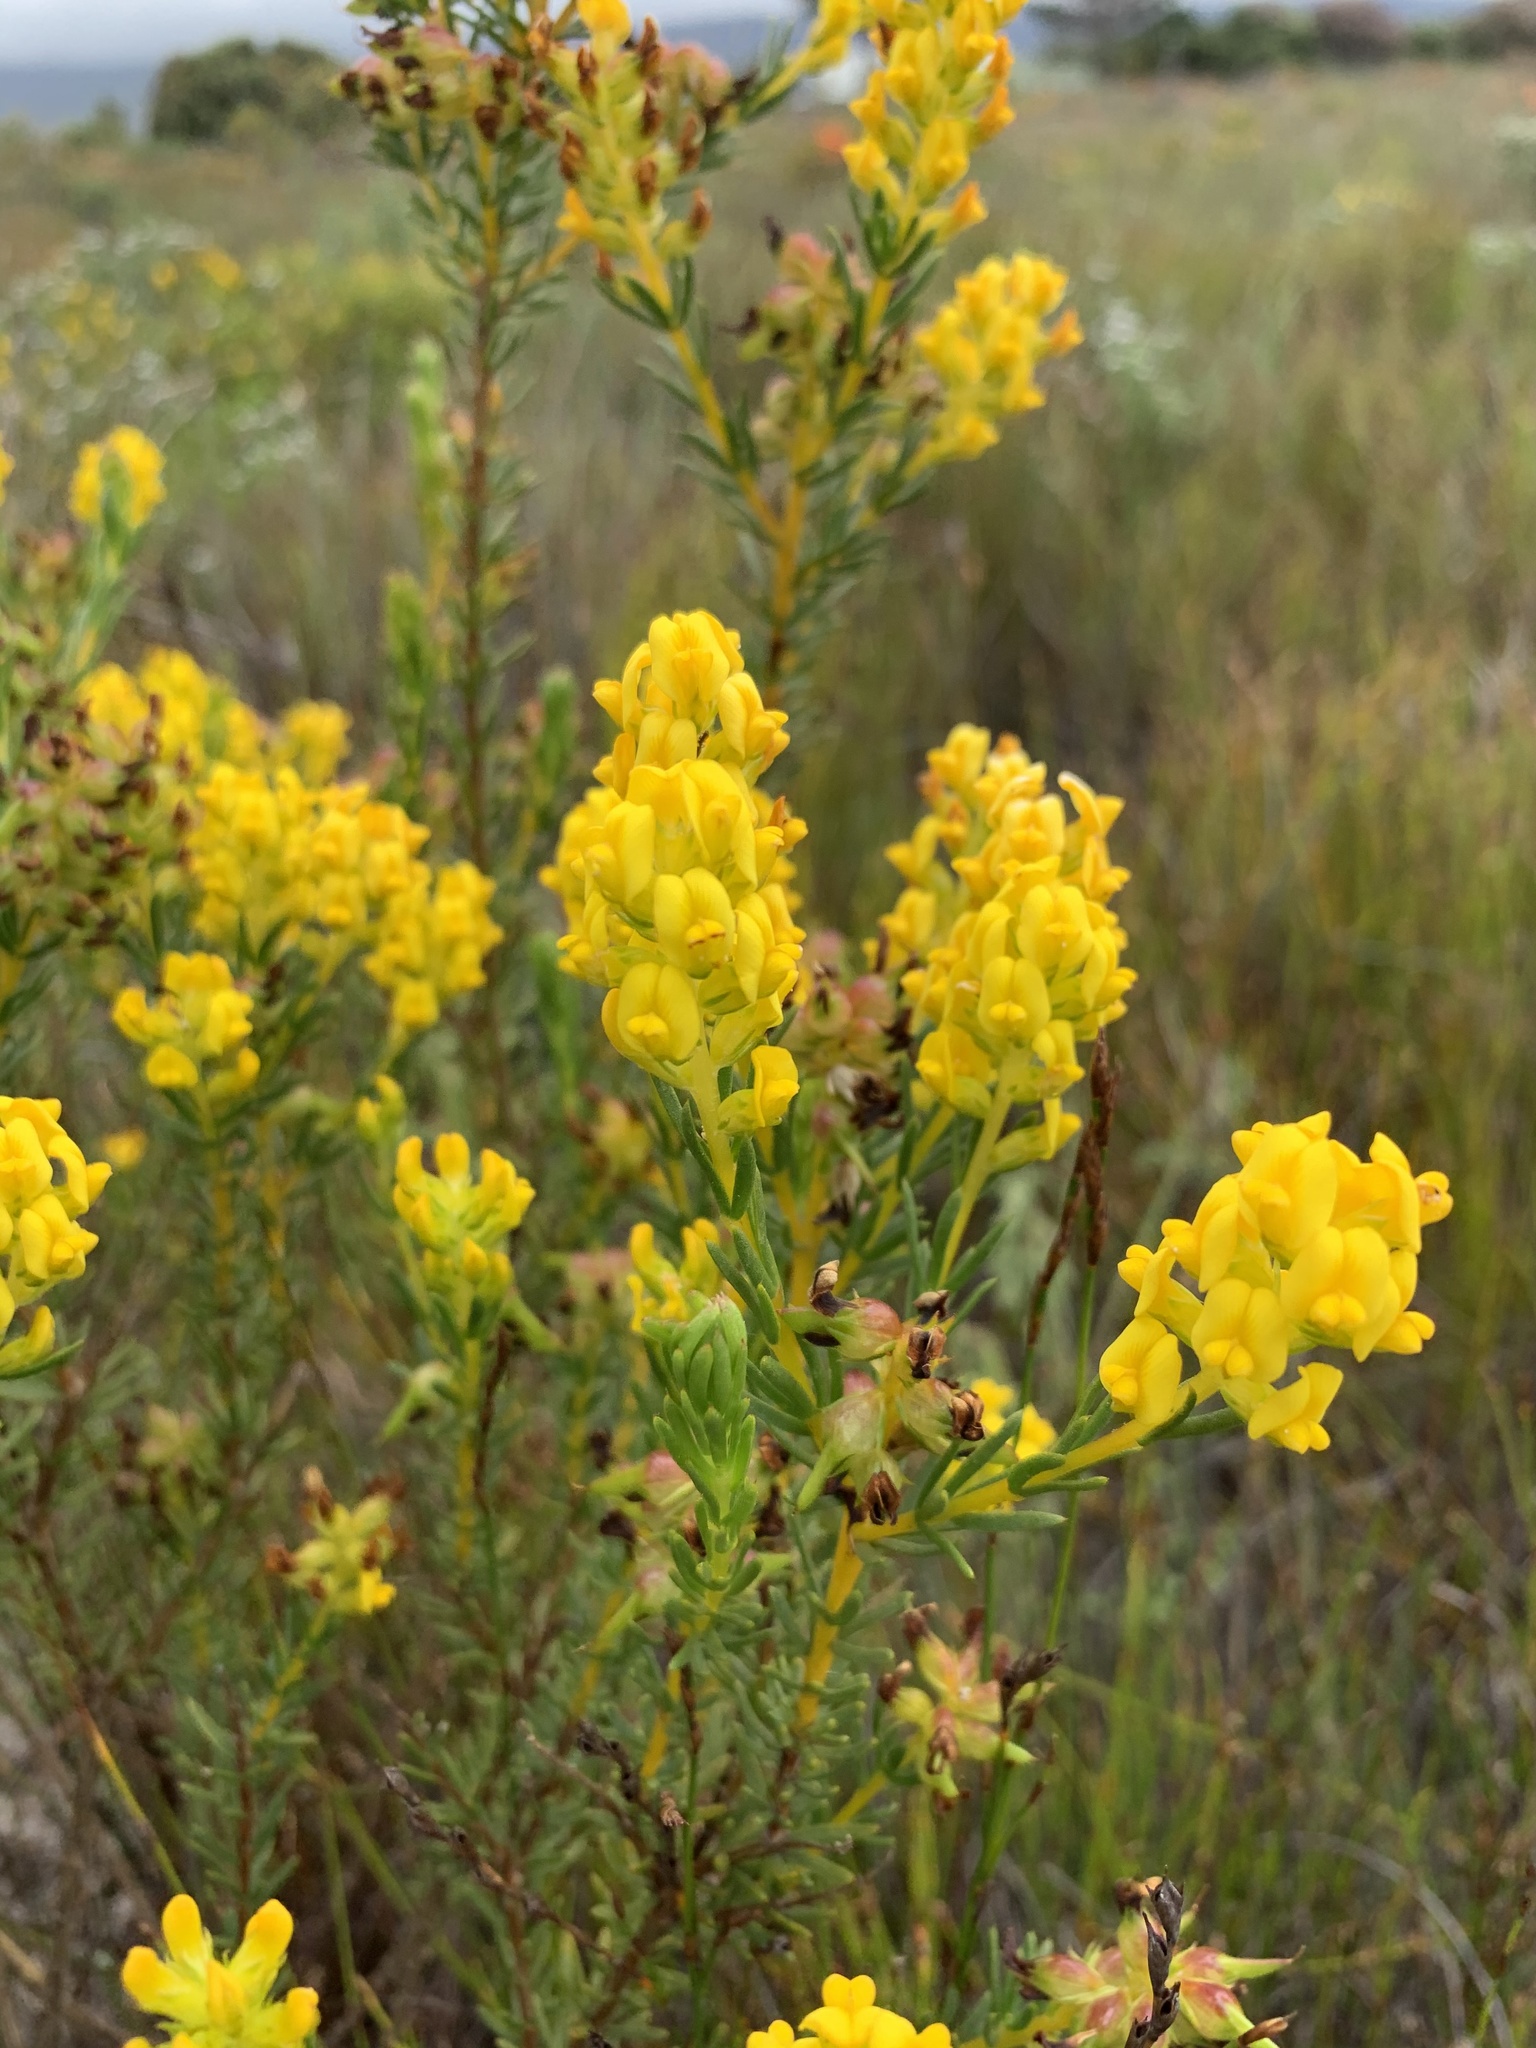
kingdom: Plantae
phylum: Tracheophyta
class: Magnoliopsida
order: Fabales
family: Fabaceae
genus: Aspalathus
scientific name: Aspalathus callosa
